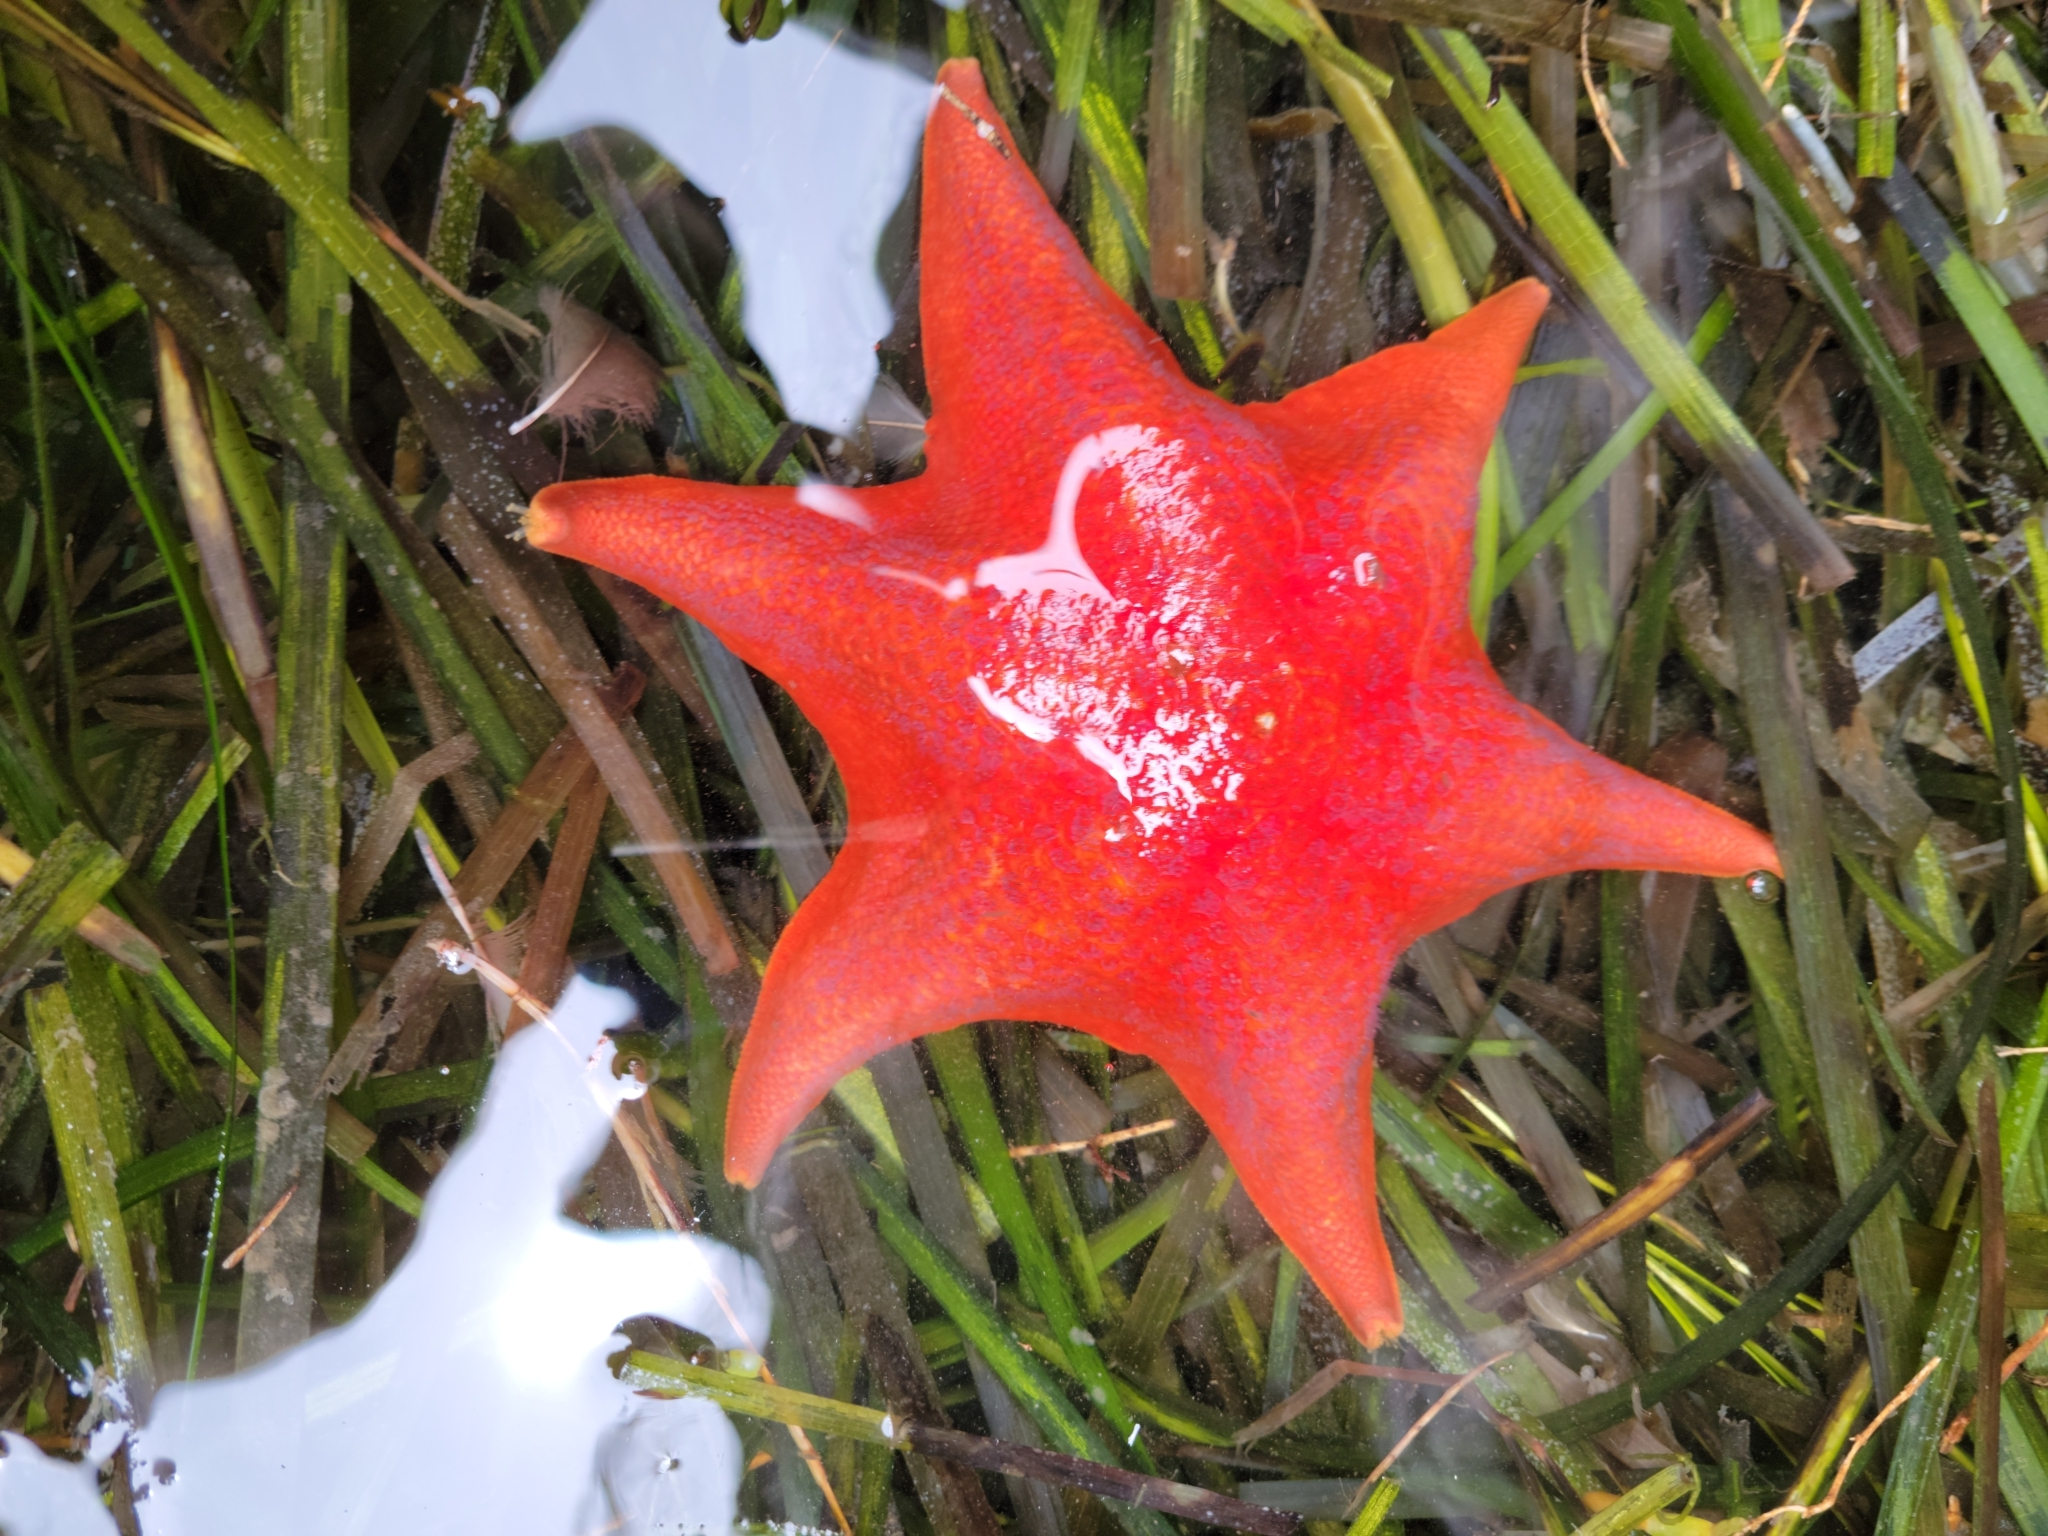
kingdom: Animalia
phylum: Echinodermata
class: Asteroidea
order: Valvatida
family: Asterinidae
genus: Patiria
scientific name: Patiria miniata
